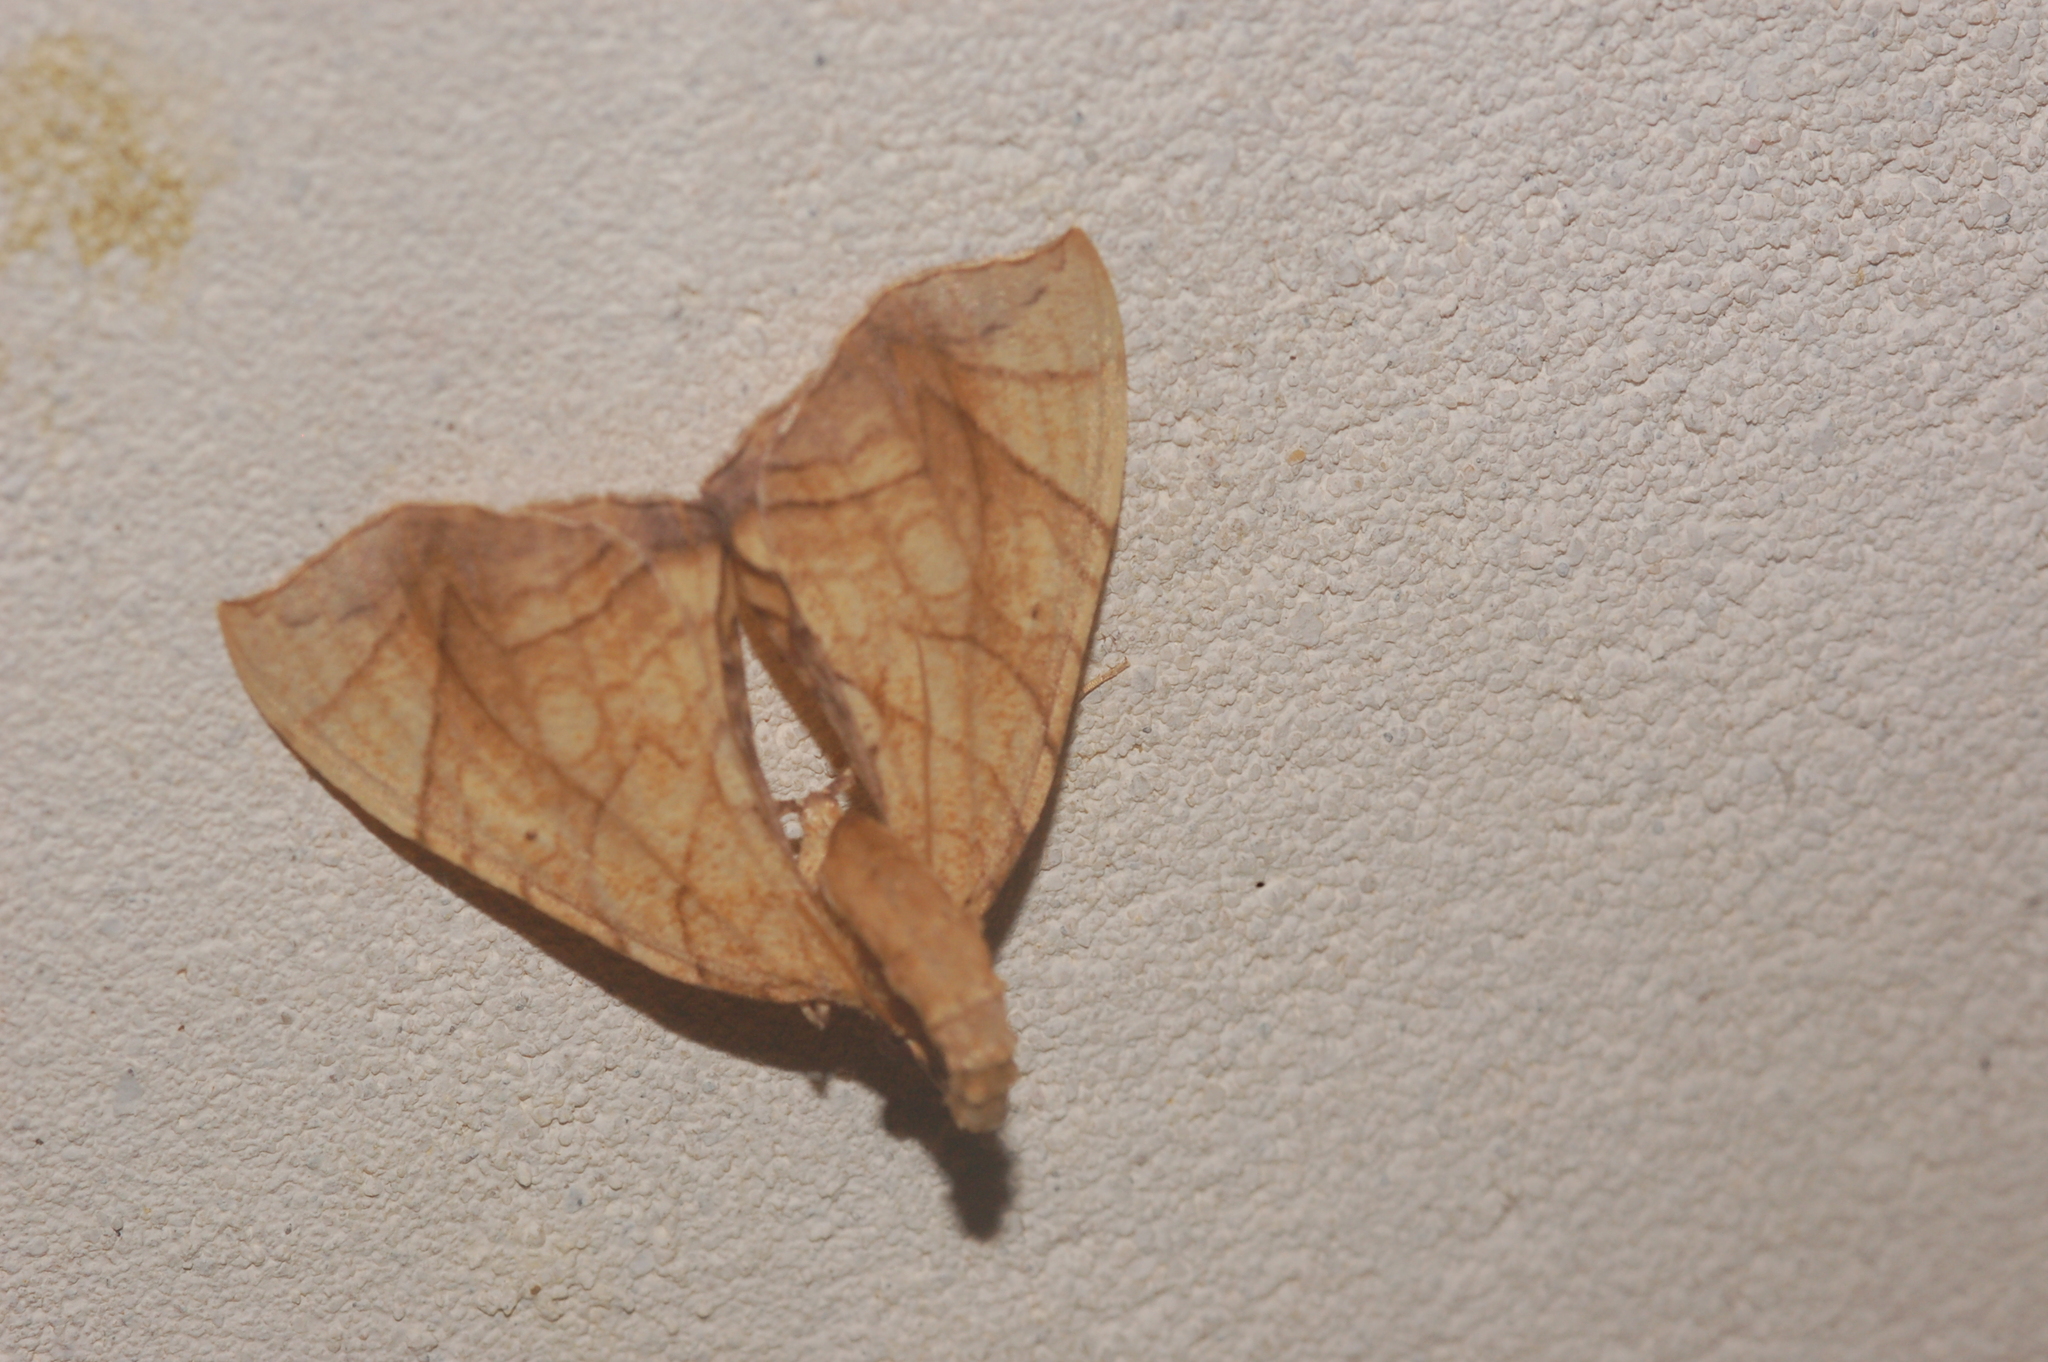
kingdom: Animalia
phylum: Arthropoda
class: Insecta
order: Lepidoptera
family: Geometridae
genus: Eulithis
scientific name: Eulithis gracilineata
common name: Greater grapevine looper moth
